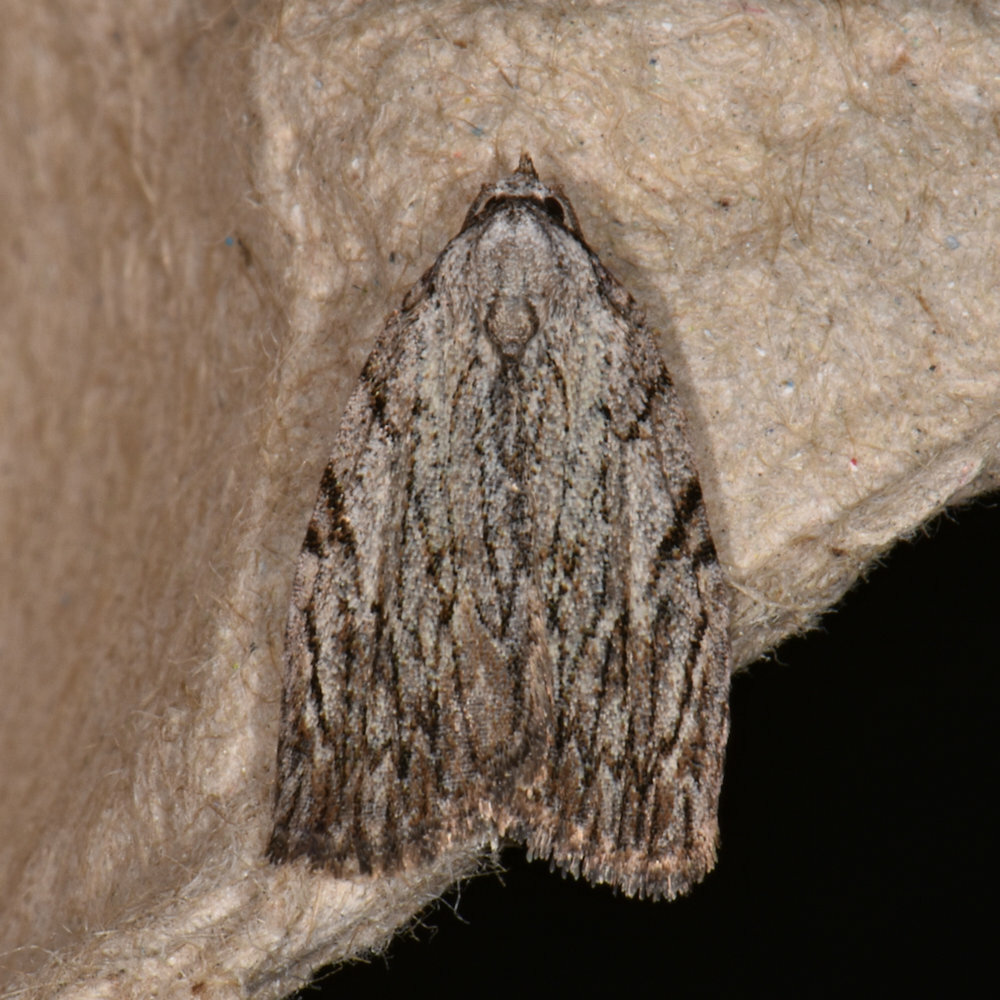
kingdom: Animalia
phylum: Arthropoda
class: Insecta
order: Lepidoptera
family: Noctuidae
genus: Balsa
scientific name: Balsa tristrigella
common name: Three-lined balsa moth
